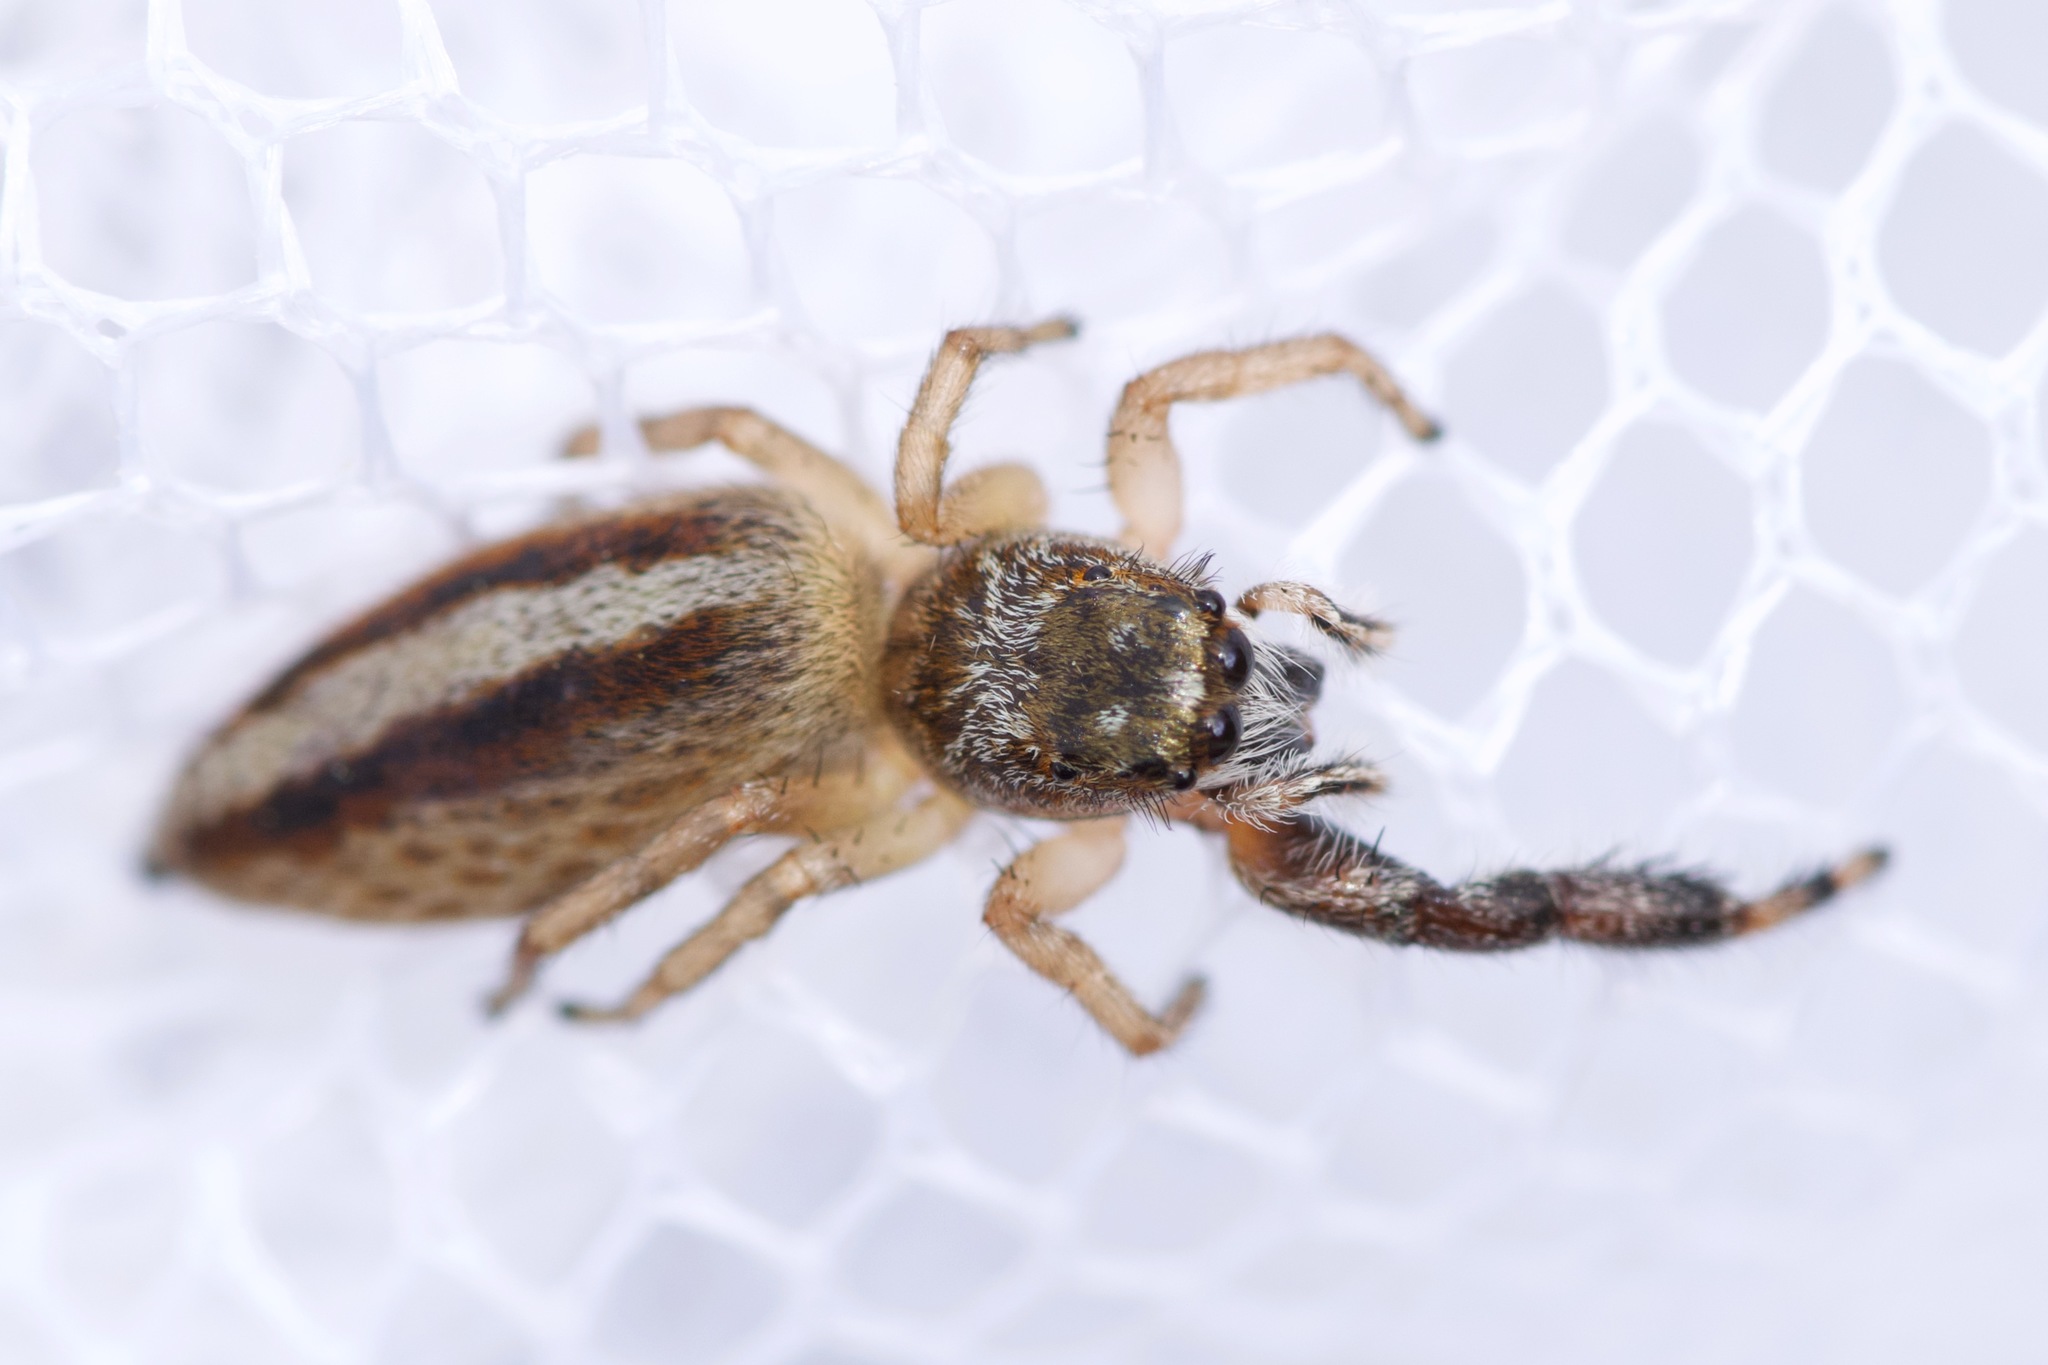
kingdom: Animalia
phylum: Arthropoda
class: Arachnida
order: Araneae
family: Salticidae
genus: Marpissa
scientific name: Marpissa formosa
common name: Short-bellied slender jumping spider
